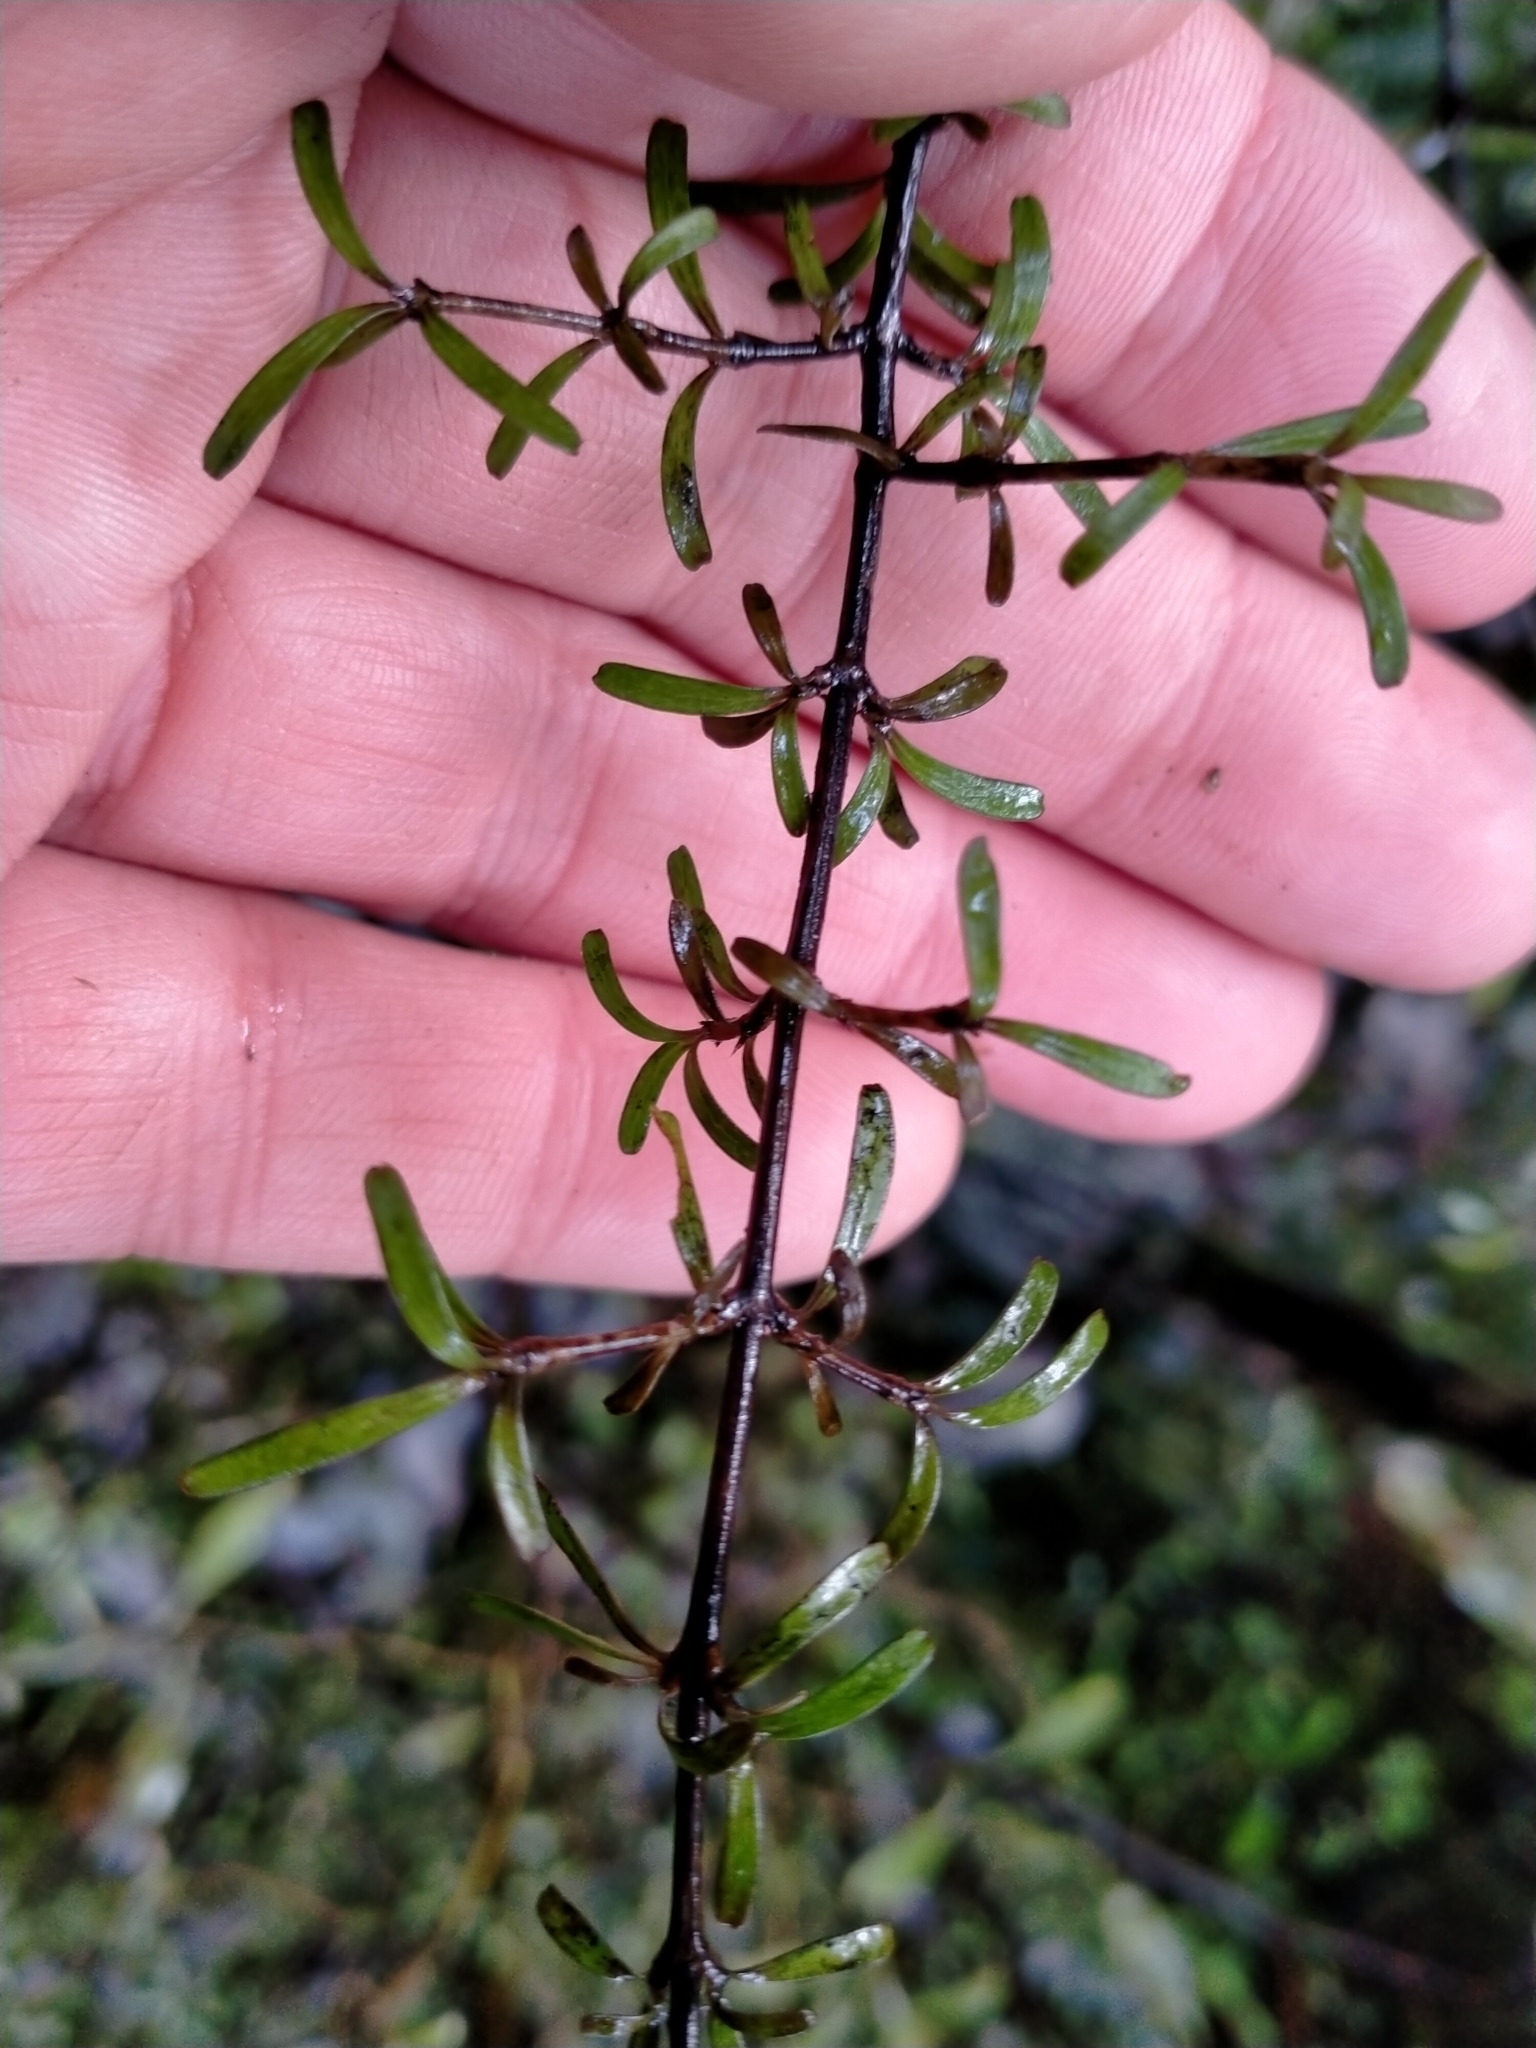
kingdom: Plantae
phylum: Tracheophyta
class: Magnoliopsida
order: Gentianales
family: Rubiaceae
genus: Coprosma
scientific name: Coprosma cuneata
